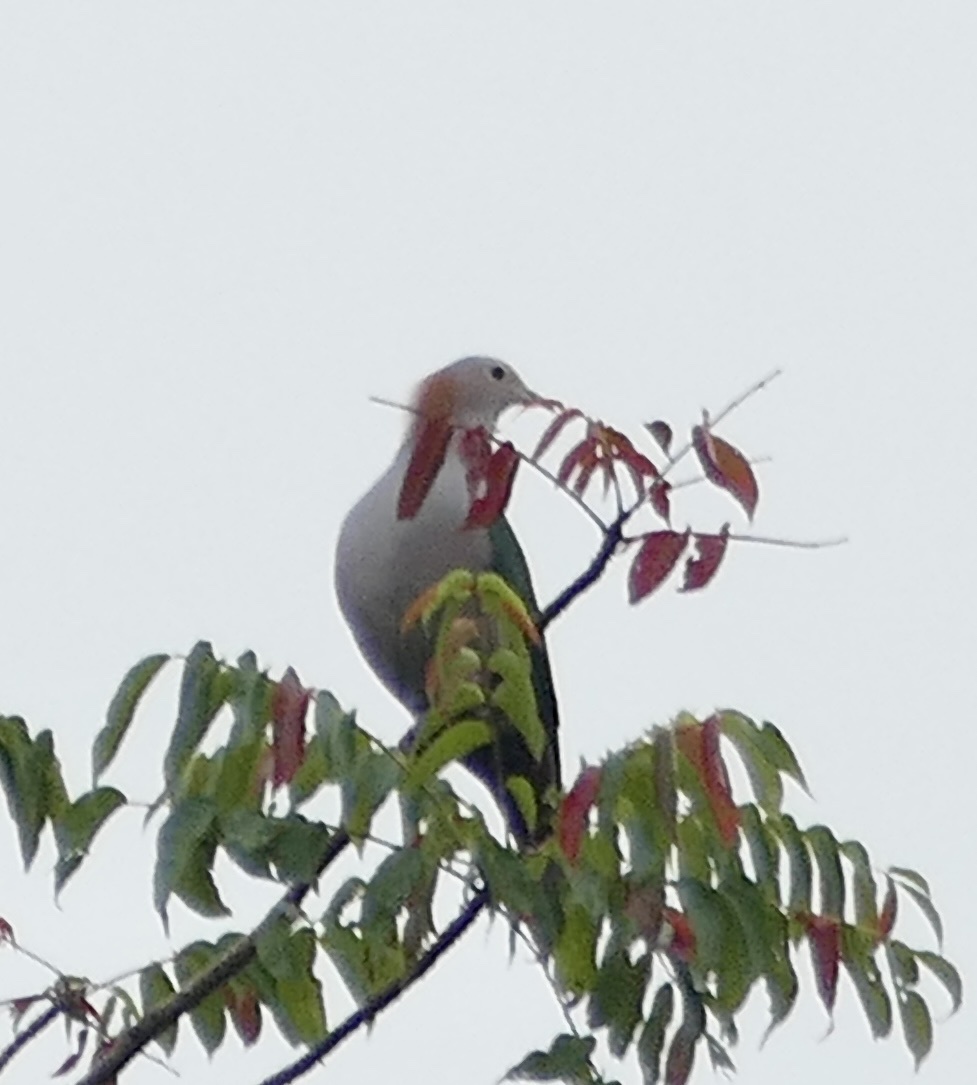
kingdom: Animalia
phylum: Chordata
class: Aves
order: Columbiformes
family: Columbidae
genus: Ducula
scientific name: Ducula aenea
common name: Green imperial pigeon
